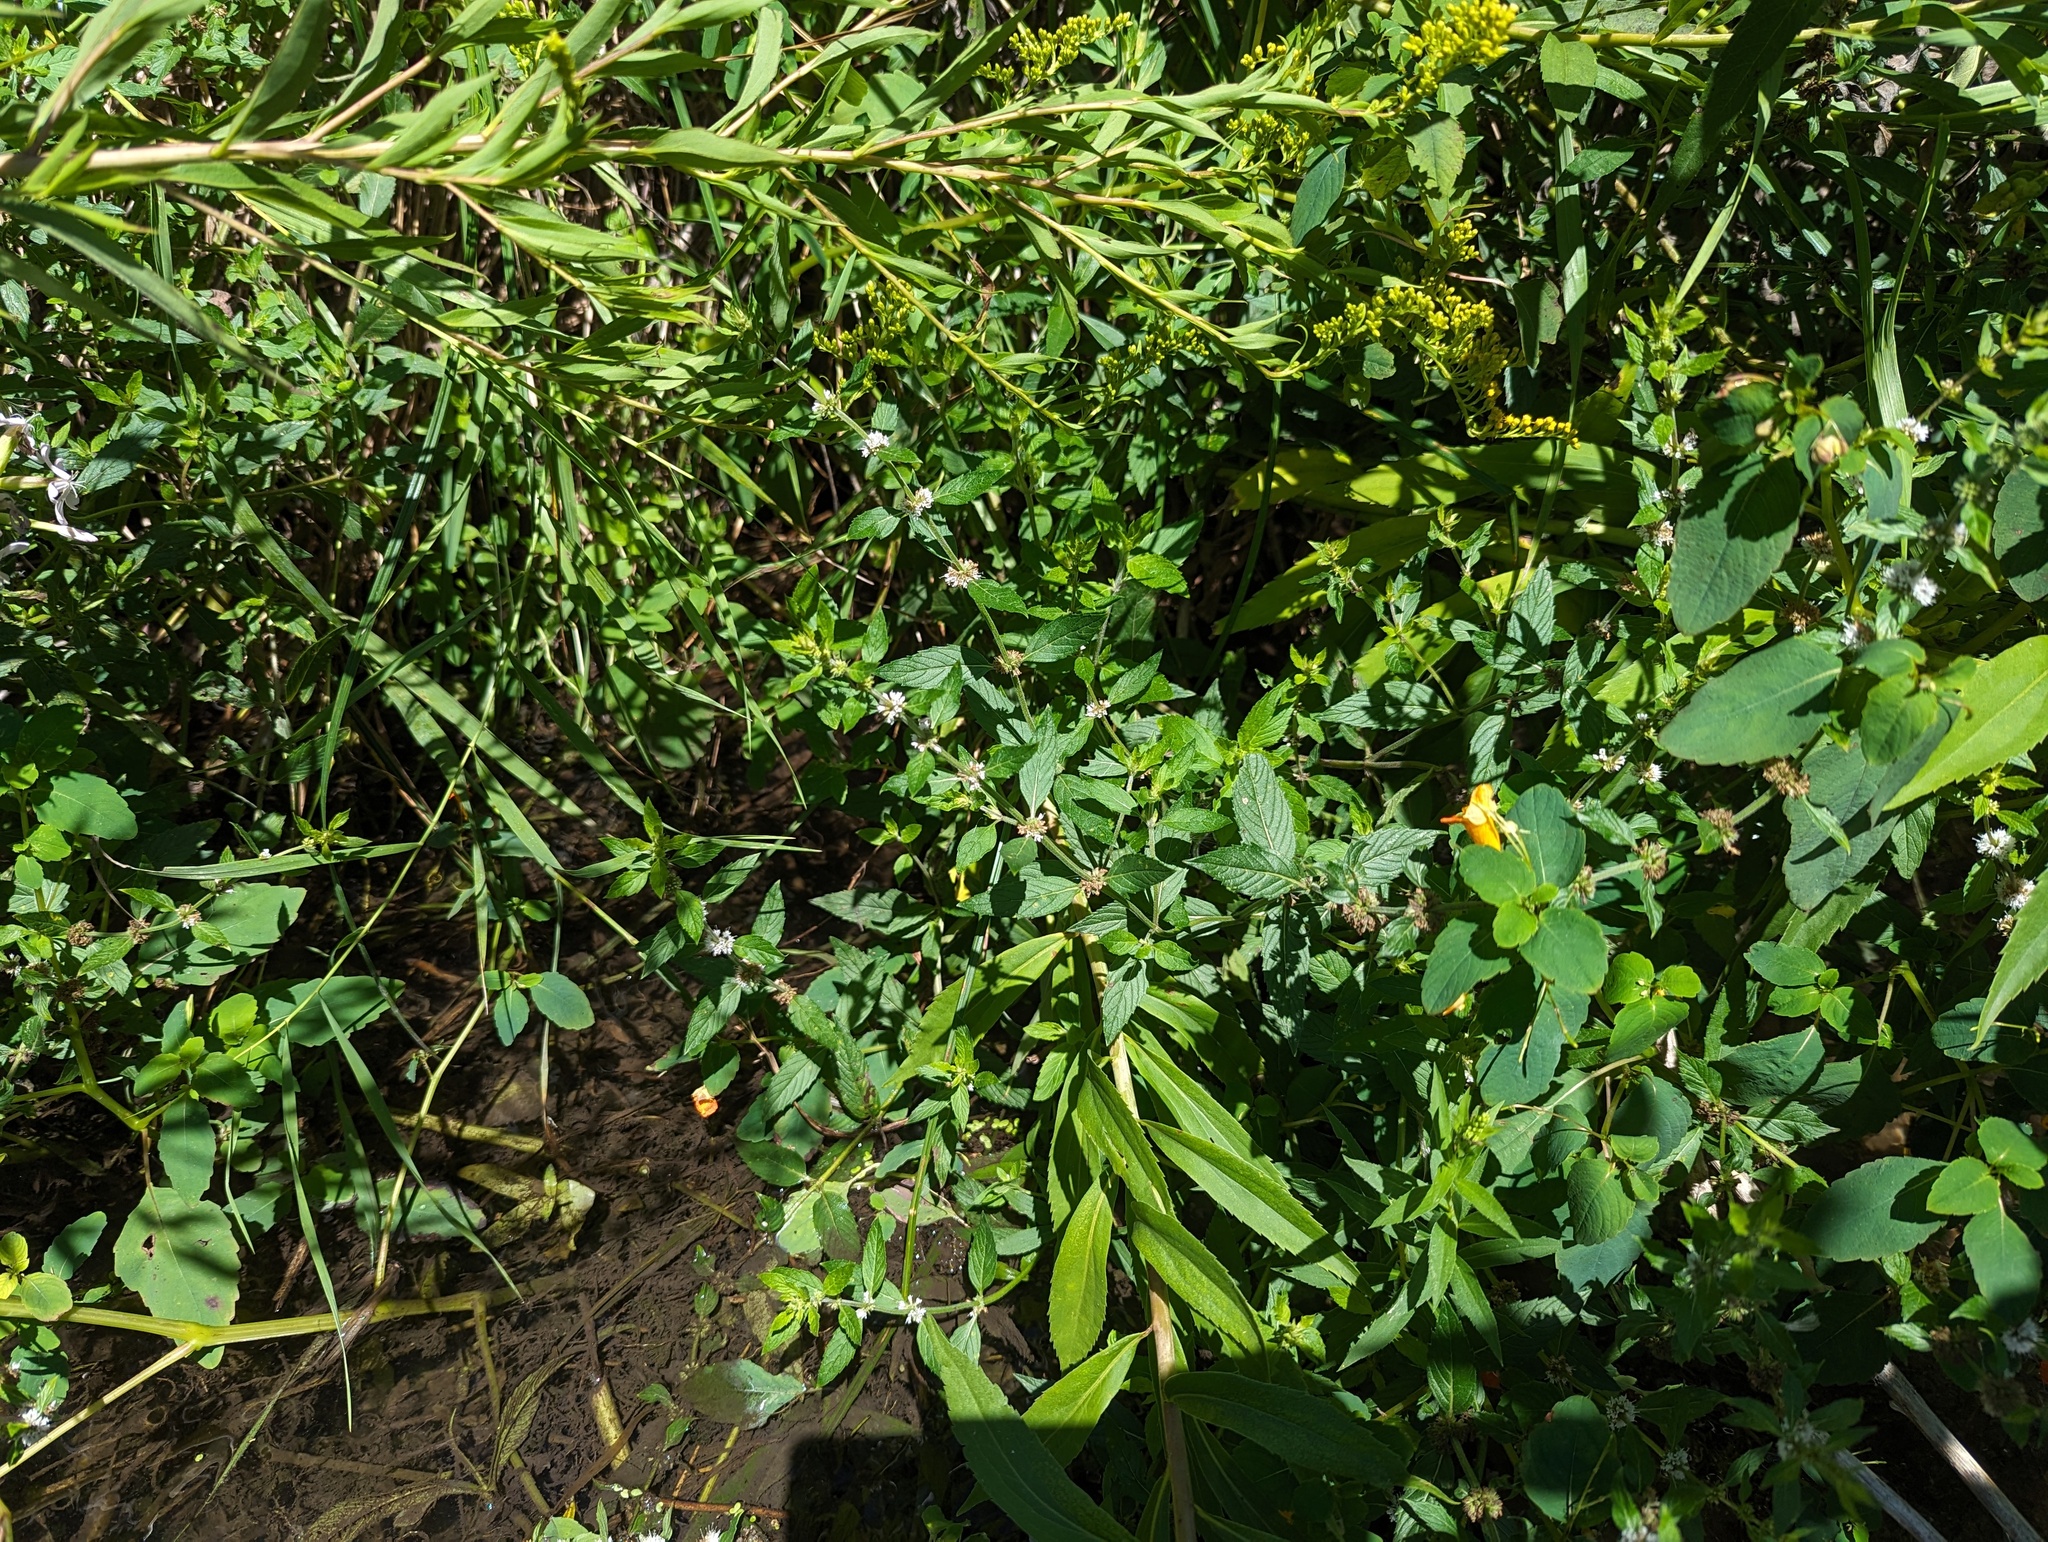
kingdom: Plantae
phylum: Tracheophyta
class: Magnoliopsida
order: Lamiales
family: Lamiaceae
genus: Mentha
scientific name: Mentha canadensis
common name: American corn mint
